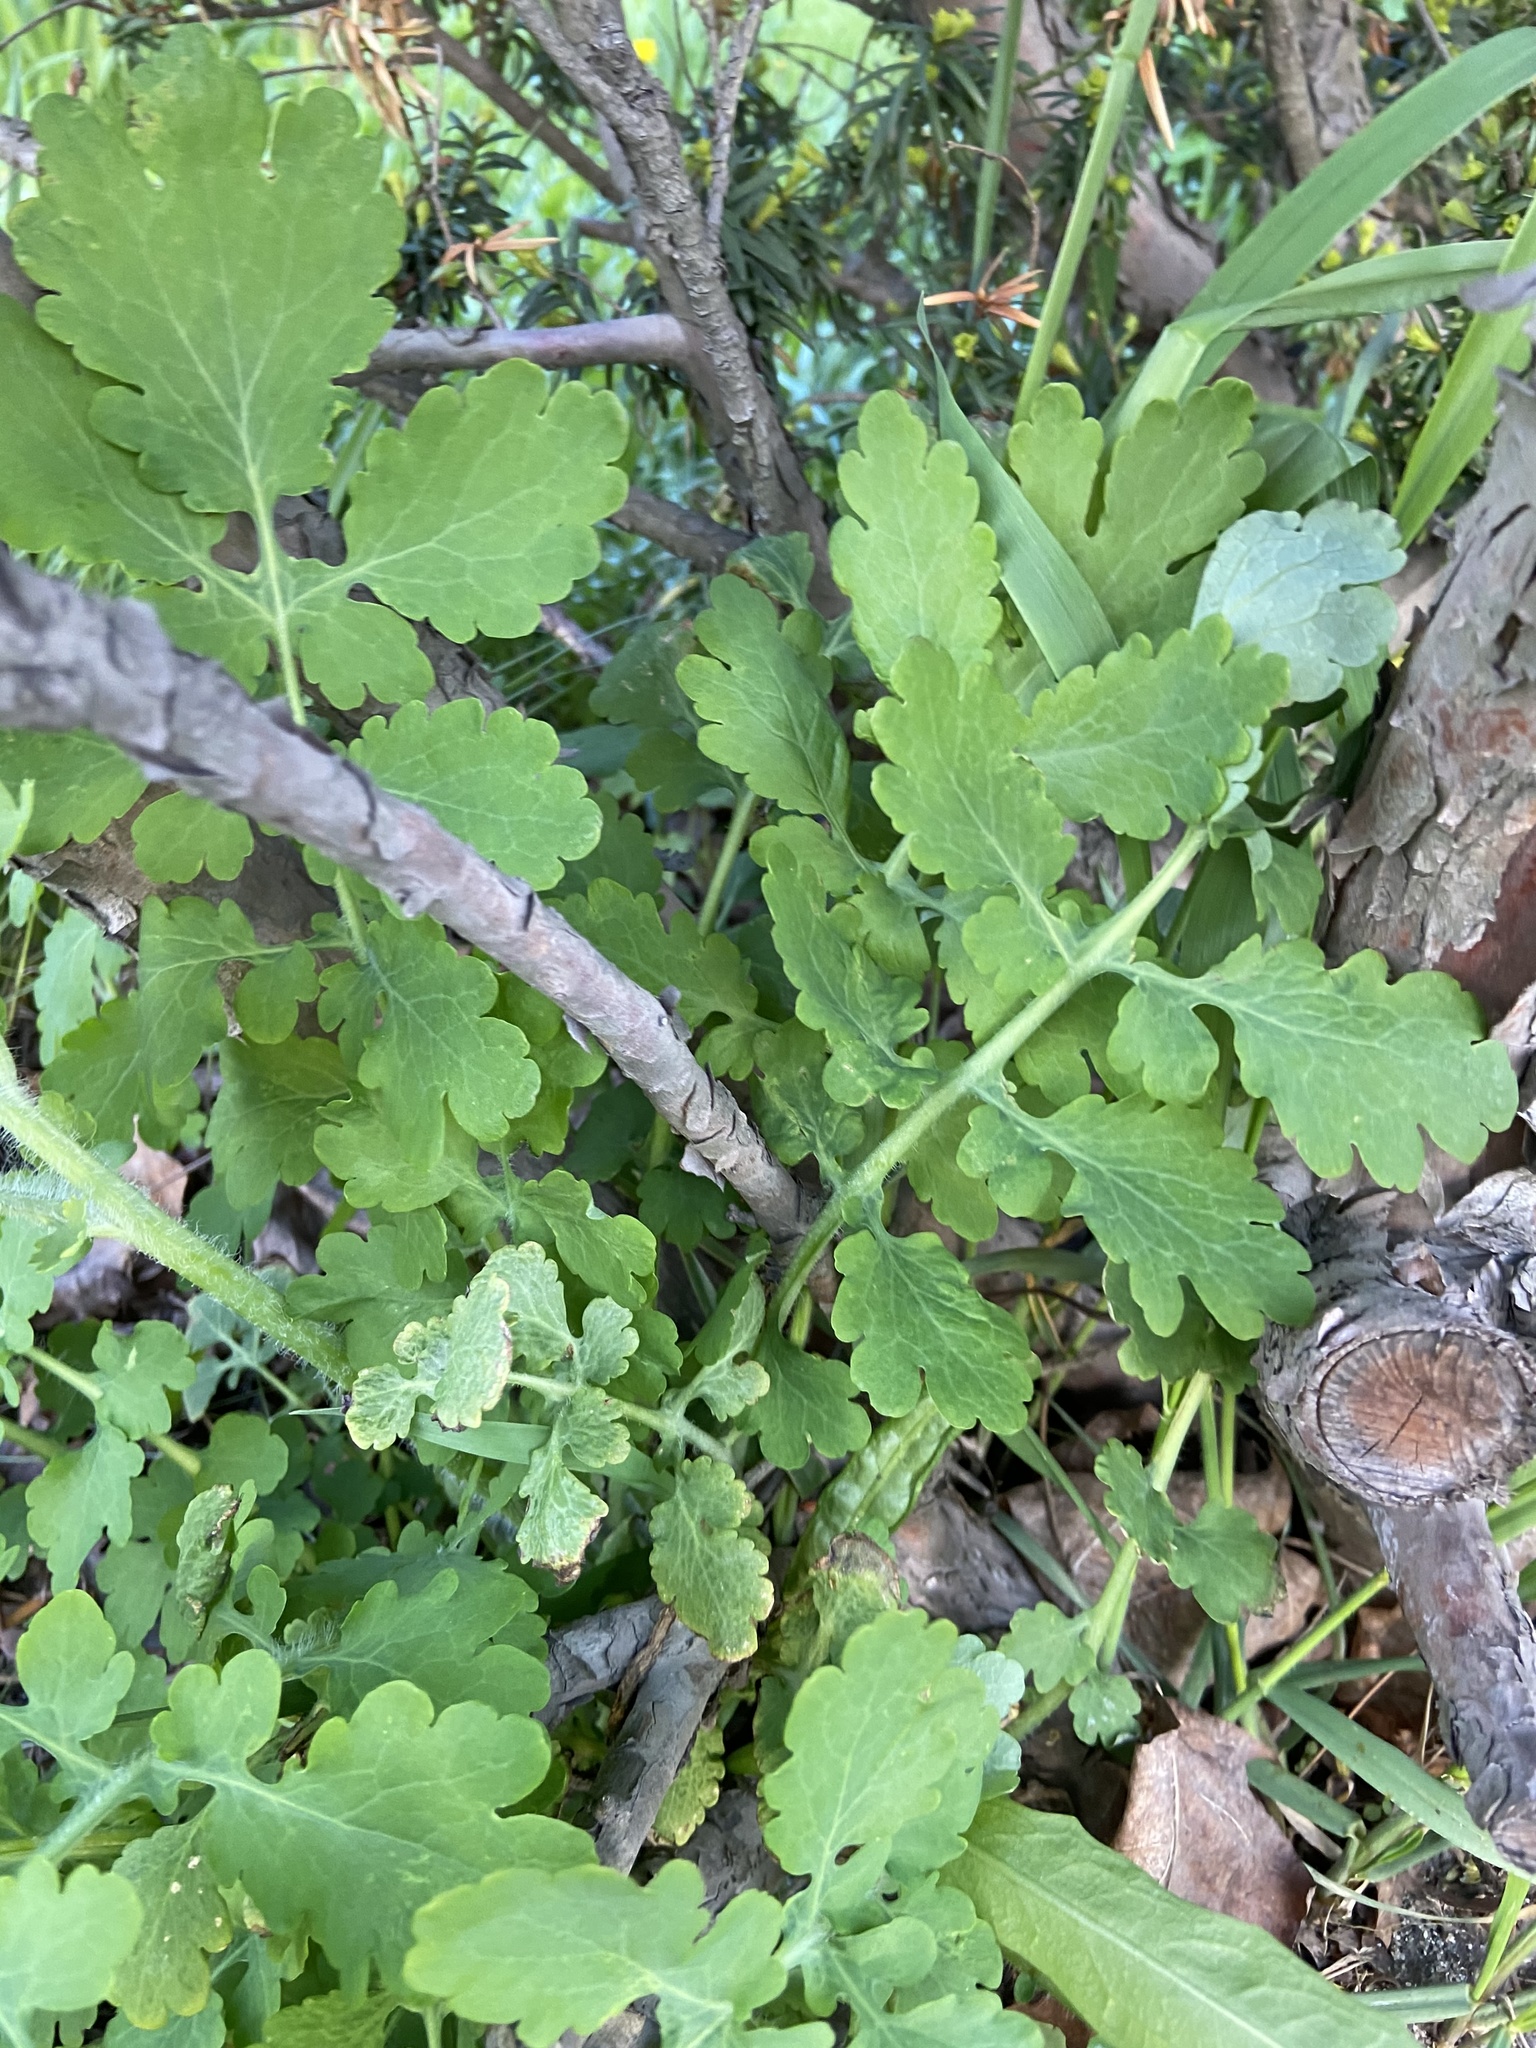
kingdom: Plantae
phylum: Tracheophyta
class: Magnoliopsida
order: Ranunculales
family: Papaveraceae
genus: Chelidonium
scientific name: Chelidonium majus
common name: Greater celandine
